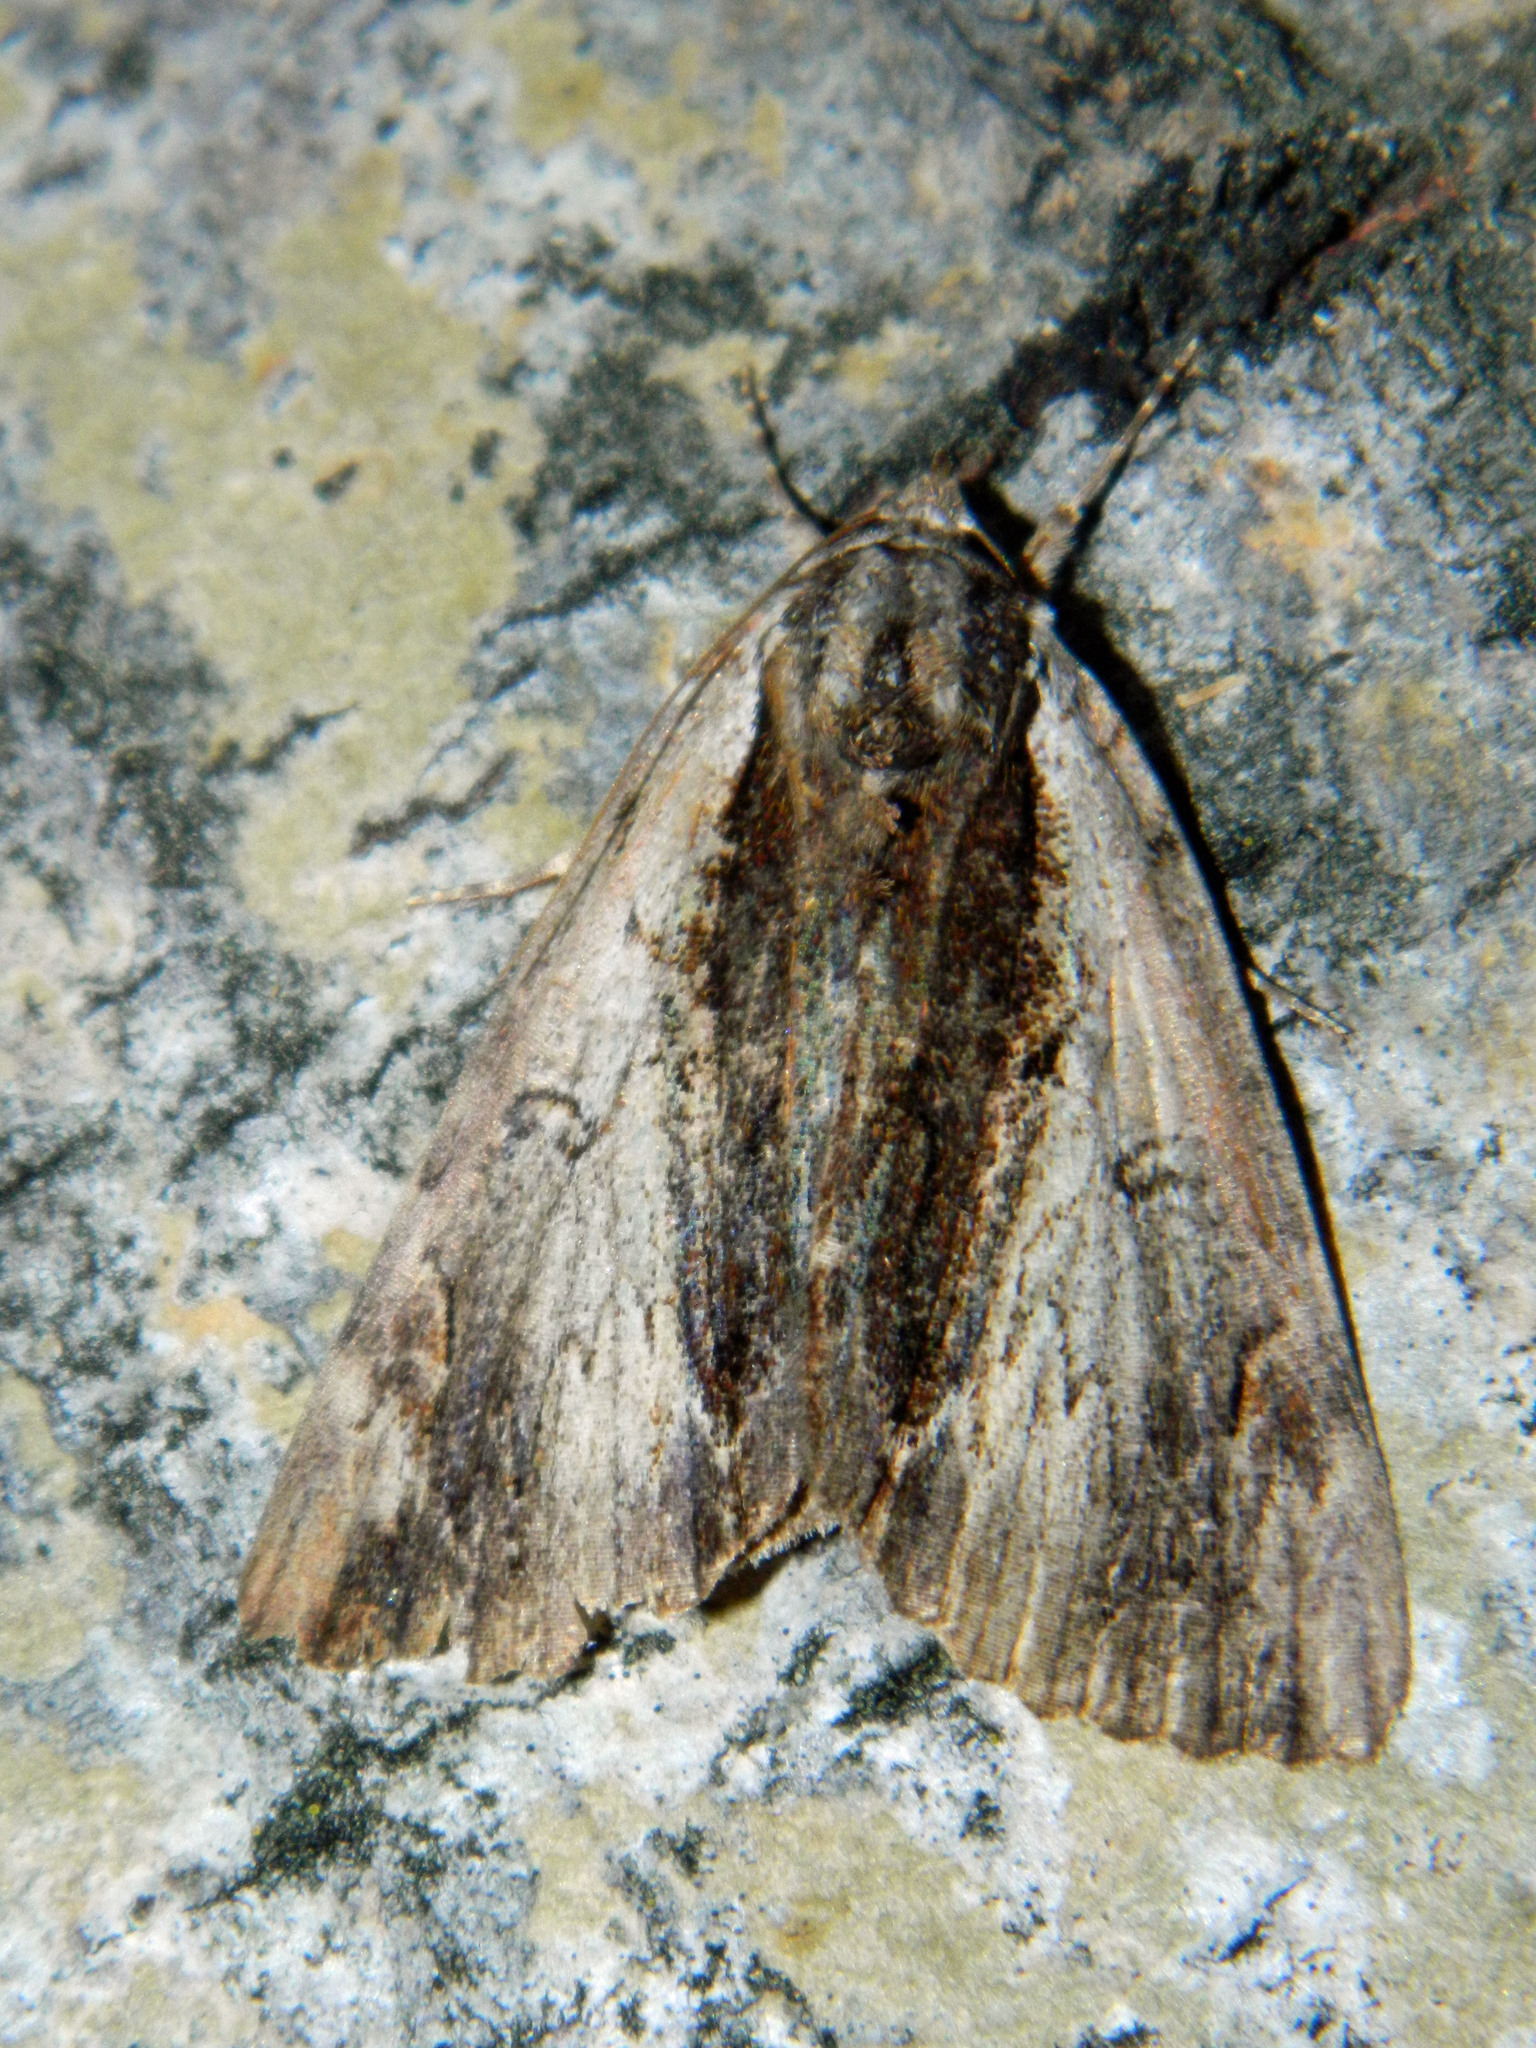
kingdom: Animalia
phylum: Arthropoda
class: Insecta
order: Lepidoptera
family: Erebidae
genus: Catocala
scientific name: Catocala ultronia
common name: Ultronia underwing
